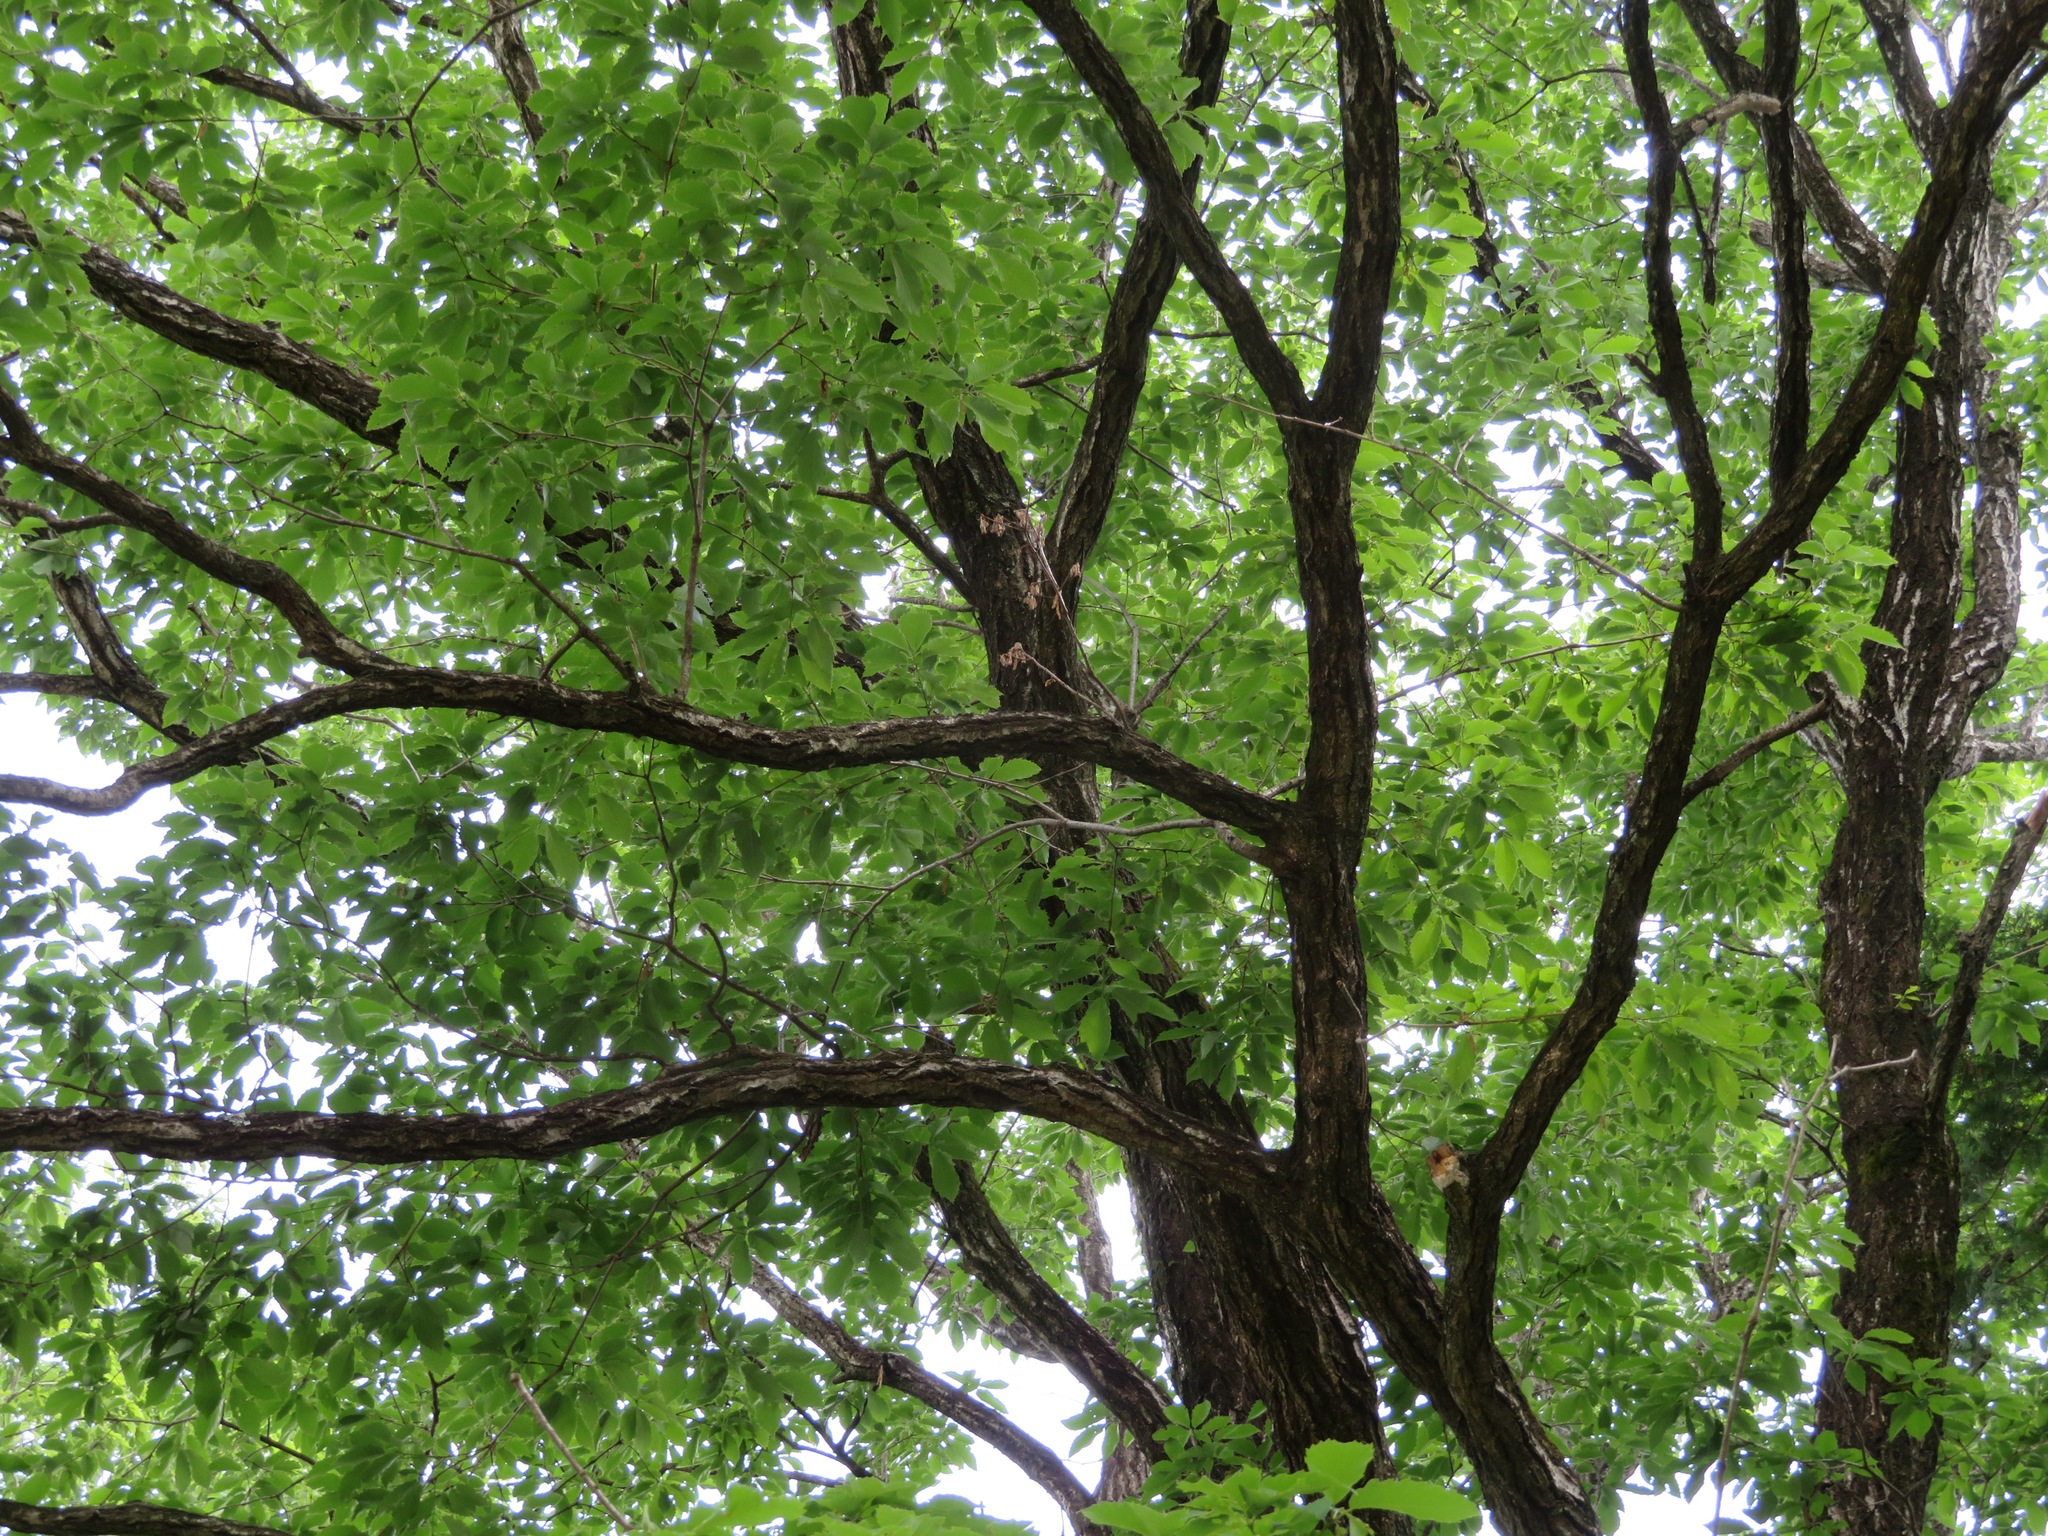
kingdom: Plantae
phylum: Tracheophyta
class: Magnoliopsida
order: Fagales
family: Fagaceae
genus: Quercus
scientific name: Quercus serrata
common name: Bao li
